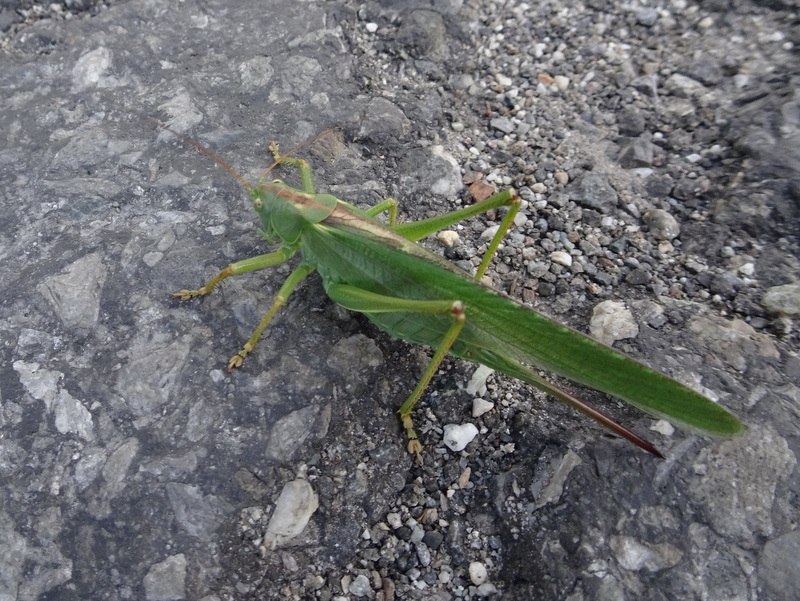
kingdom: Animalia
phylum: Arthropoda
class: Insecta
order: Orthoptera
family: Tettigoniidae
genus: Tettigonia
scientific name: Tettigonia viridissima
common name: Great green bush-cricket
